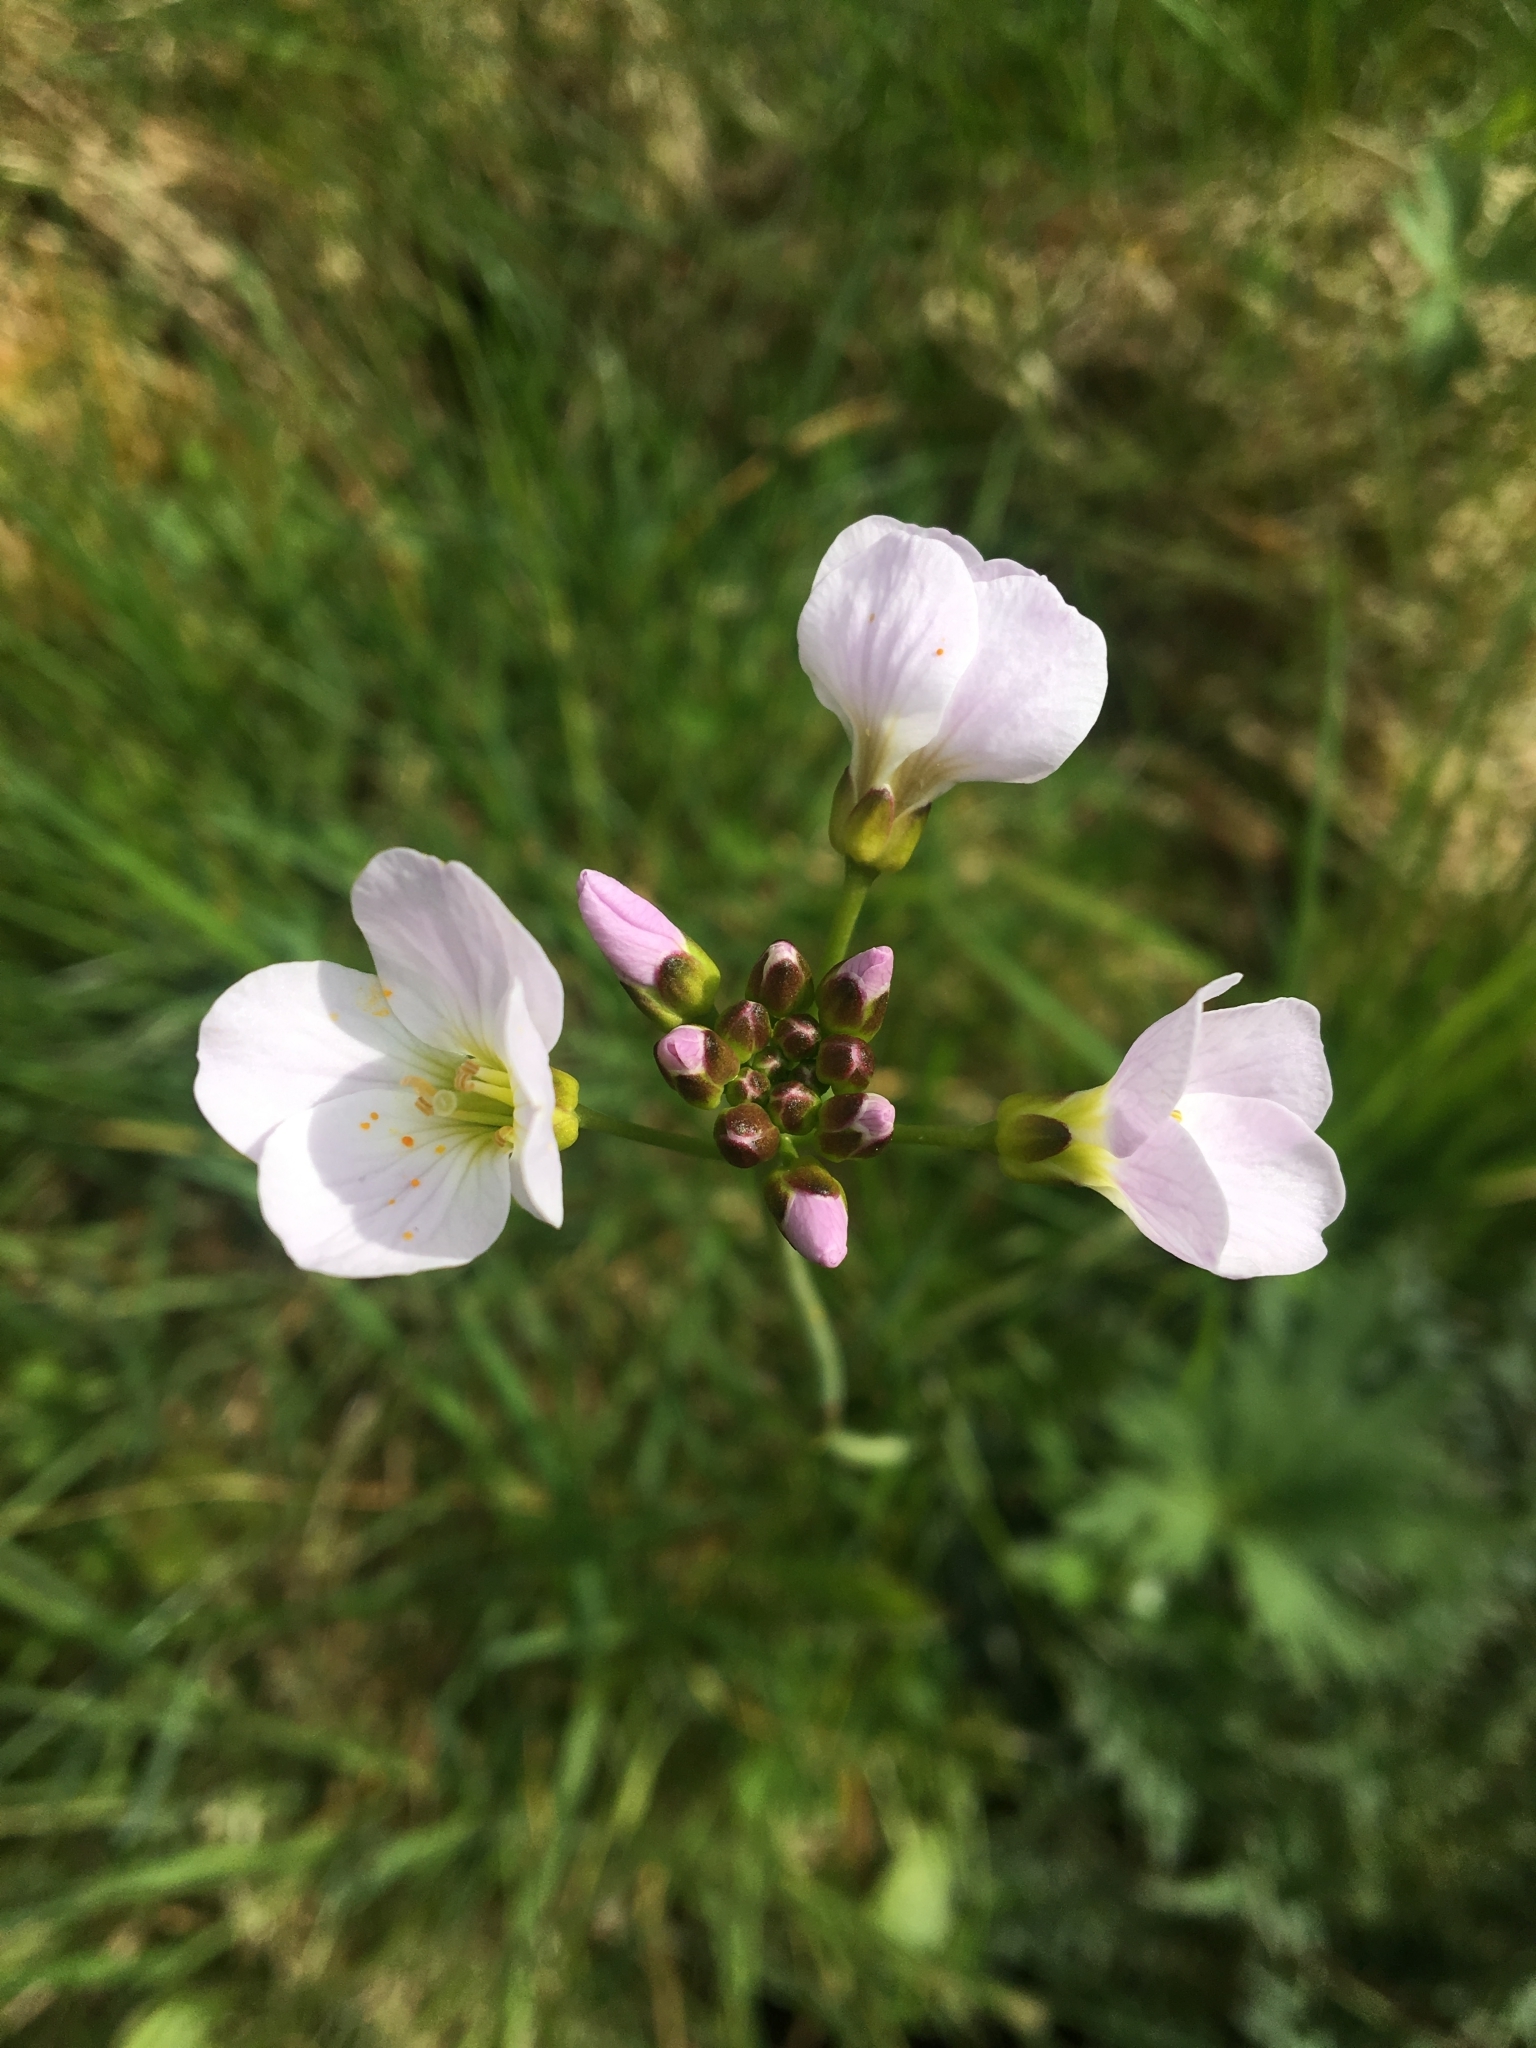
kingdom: Plantae
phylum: Tracheophyta
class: Magnoliopsida
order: Brassicales
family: Brassicaceae
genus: Cardamine
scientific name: Cardamine pratensis
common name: Cuckoo flower
